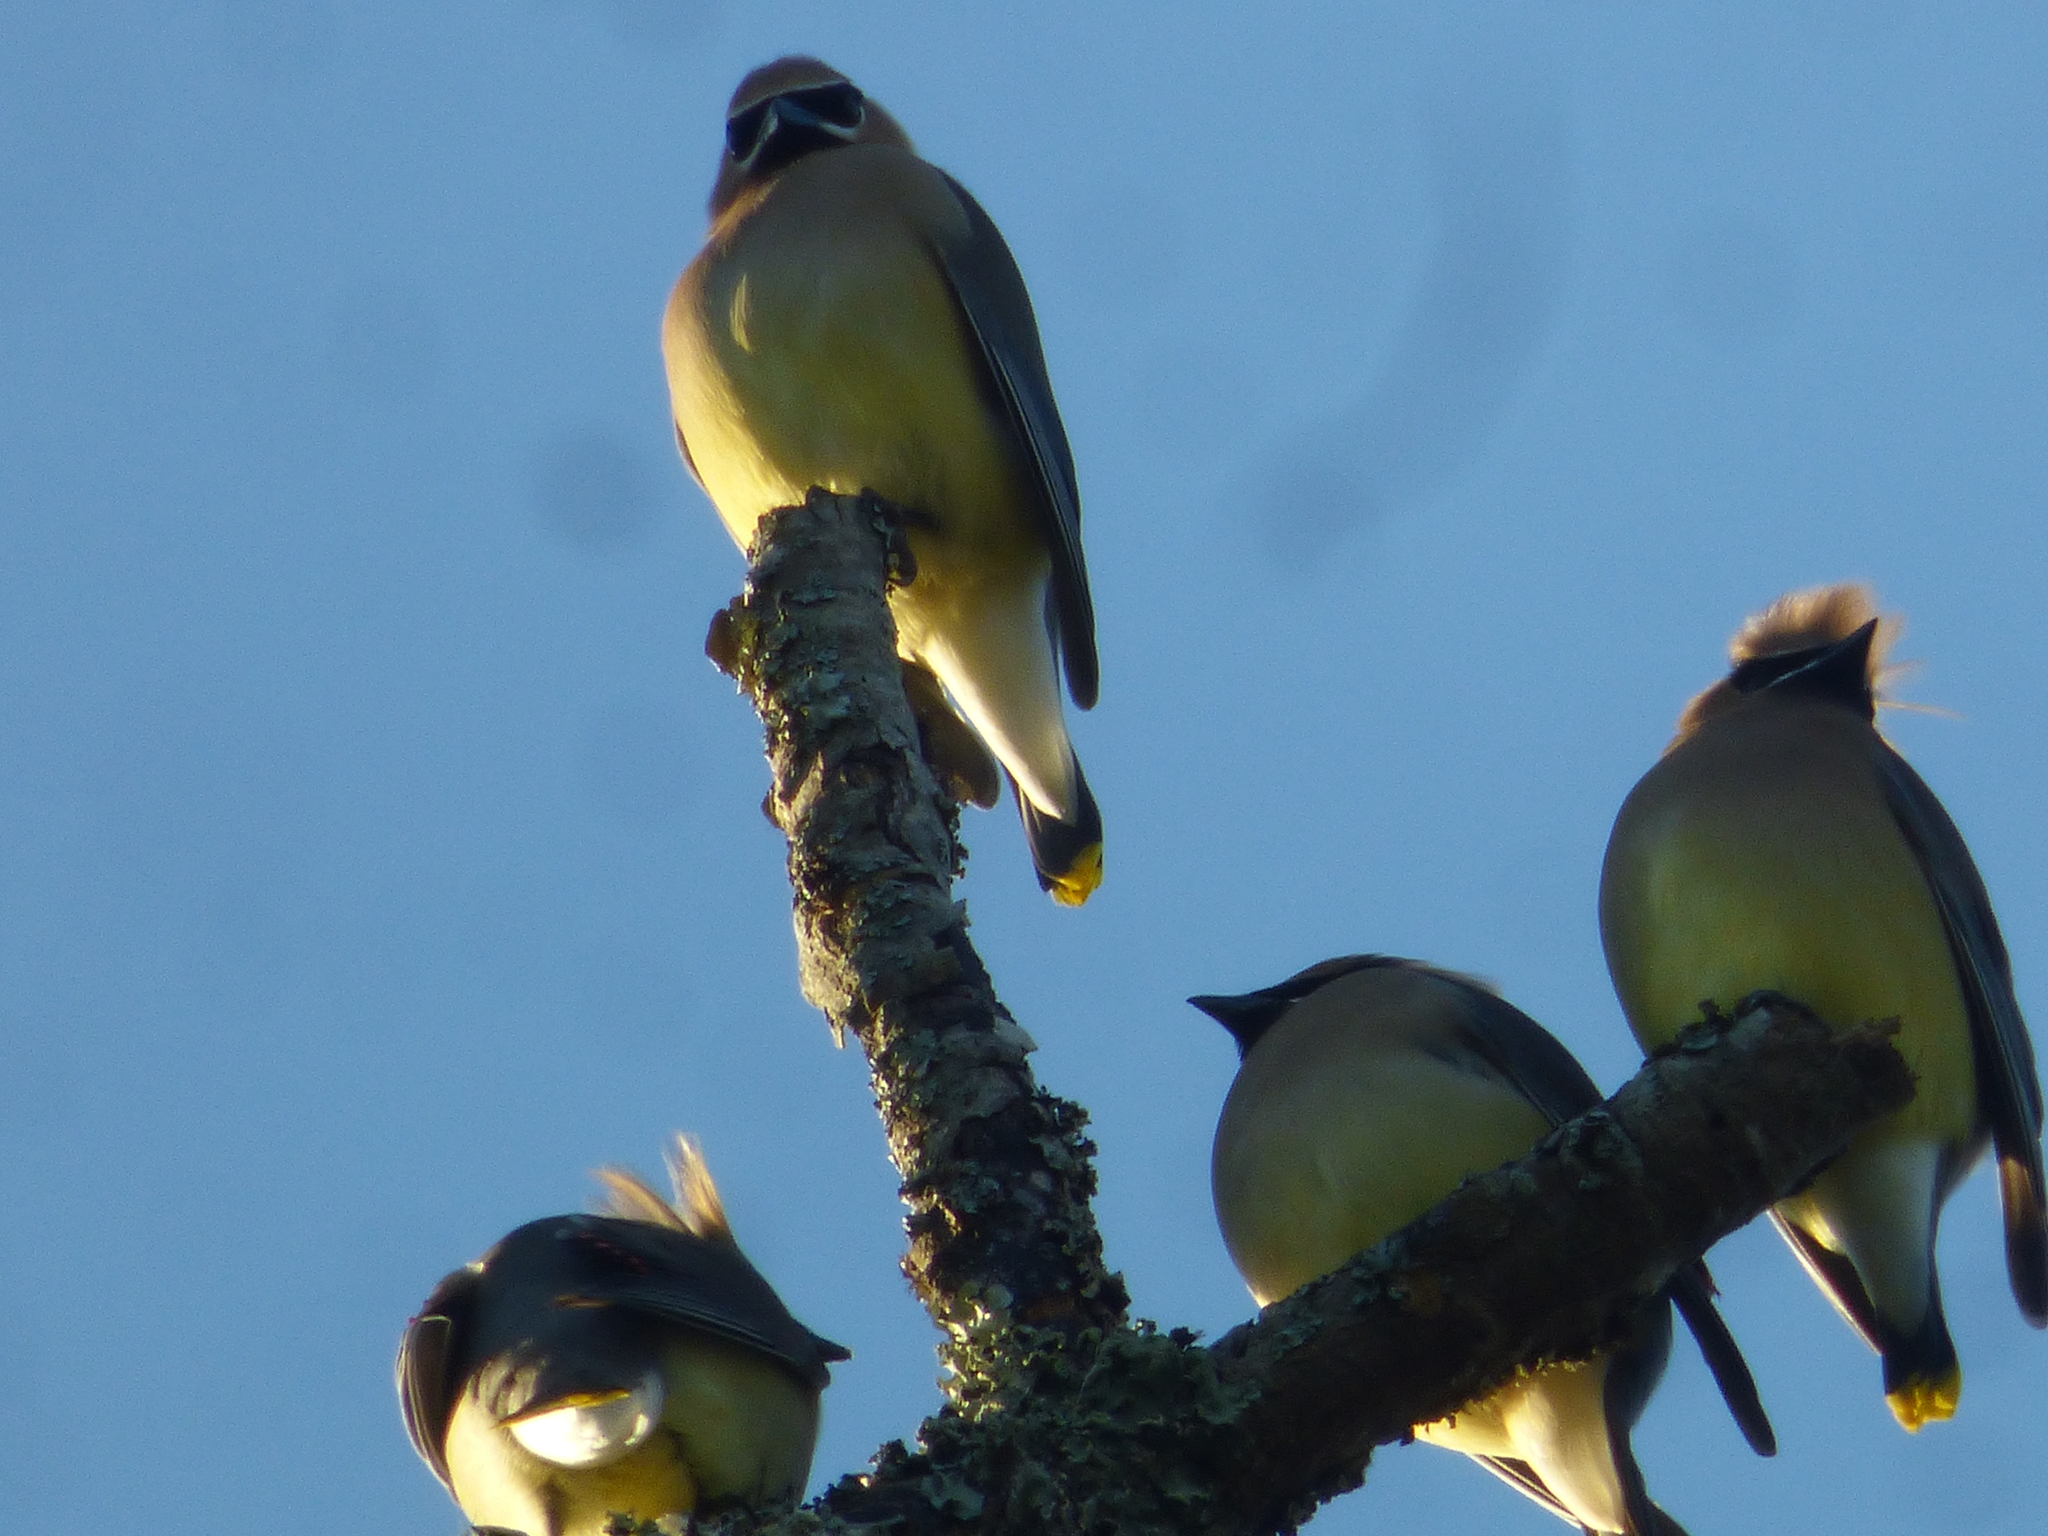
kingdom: Animalia
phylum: Chordata
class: Aves
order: Passeriformes
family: Bombycillidae
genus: Bombycilla
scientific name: Bombycilla cedrorum
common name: Cedar waxwing
